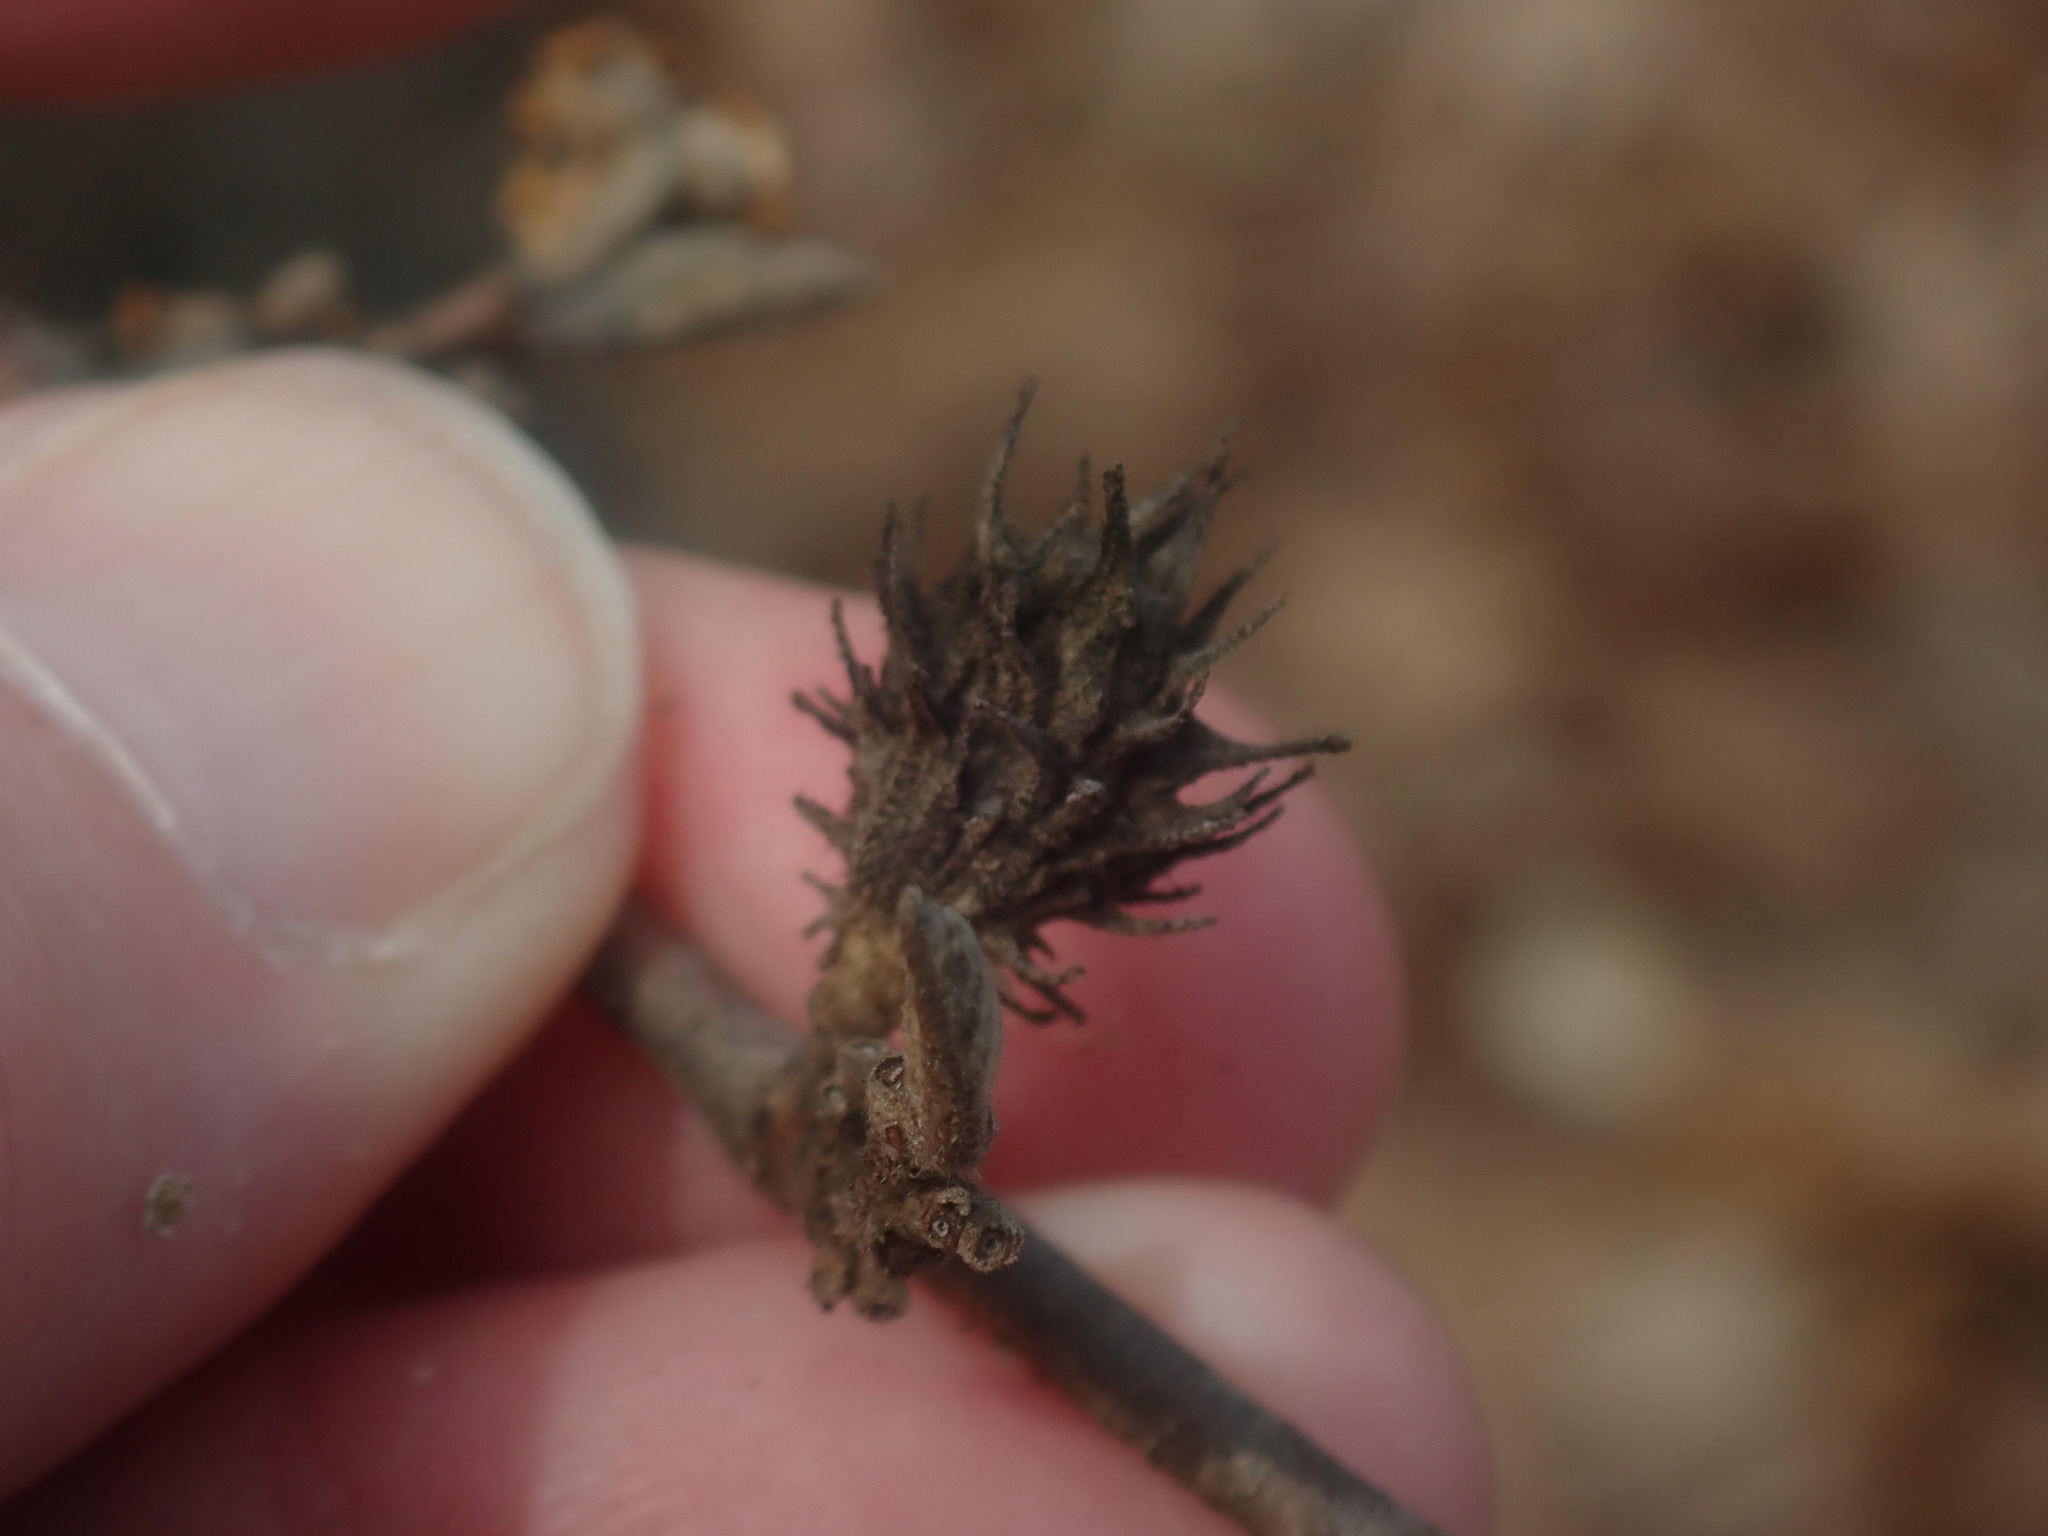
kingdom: Animalia
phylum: Arthropoda
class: Insecta
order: Hemiptera
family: Aphididae
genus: Hamamelistes
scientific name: Hamamelistes spinosus
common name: Witch hazel gall aphid
